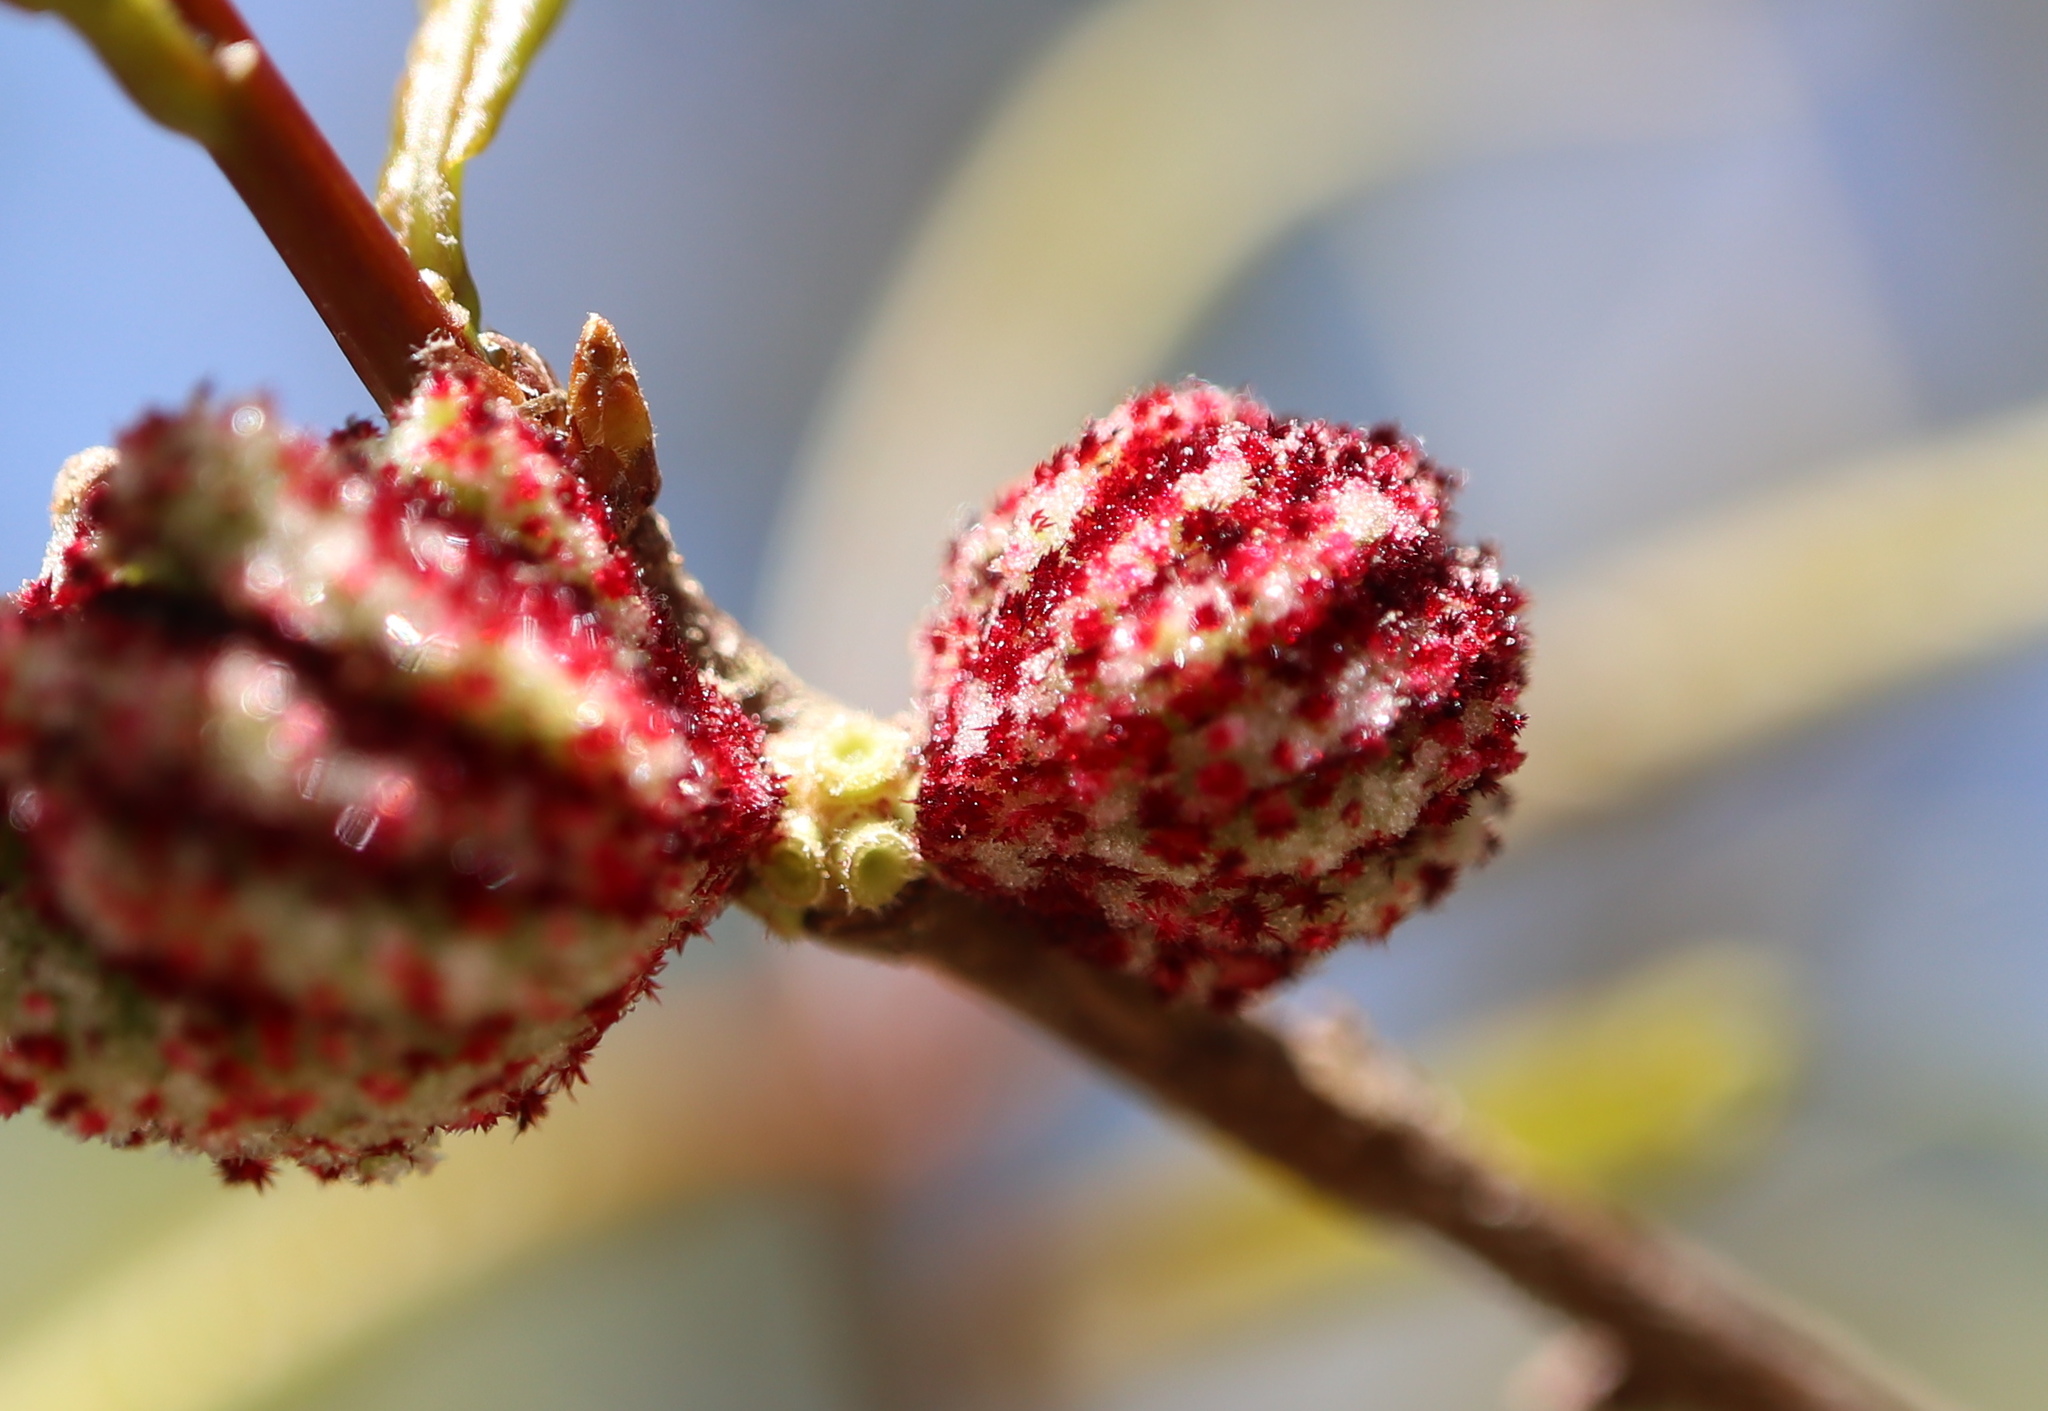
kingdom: Animalia
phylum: Arthropoda
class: Insecta
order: Hymenoptera
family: Cynipidae
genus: Andricus
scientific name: Andricus coronatus
